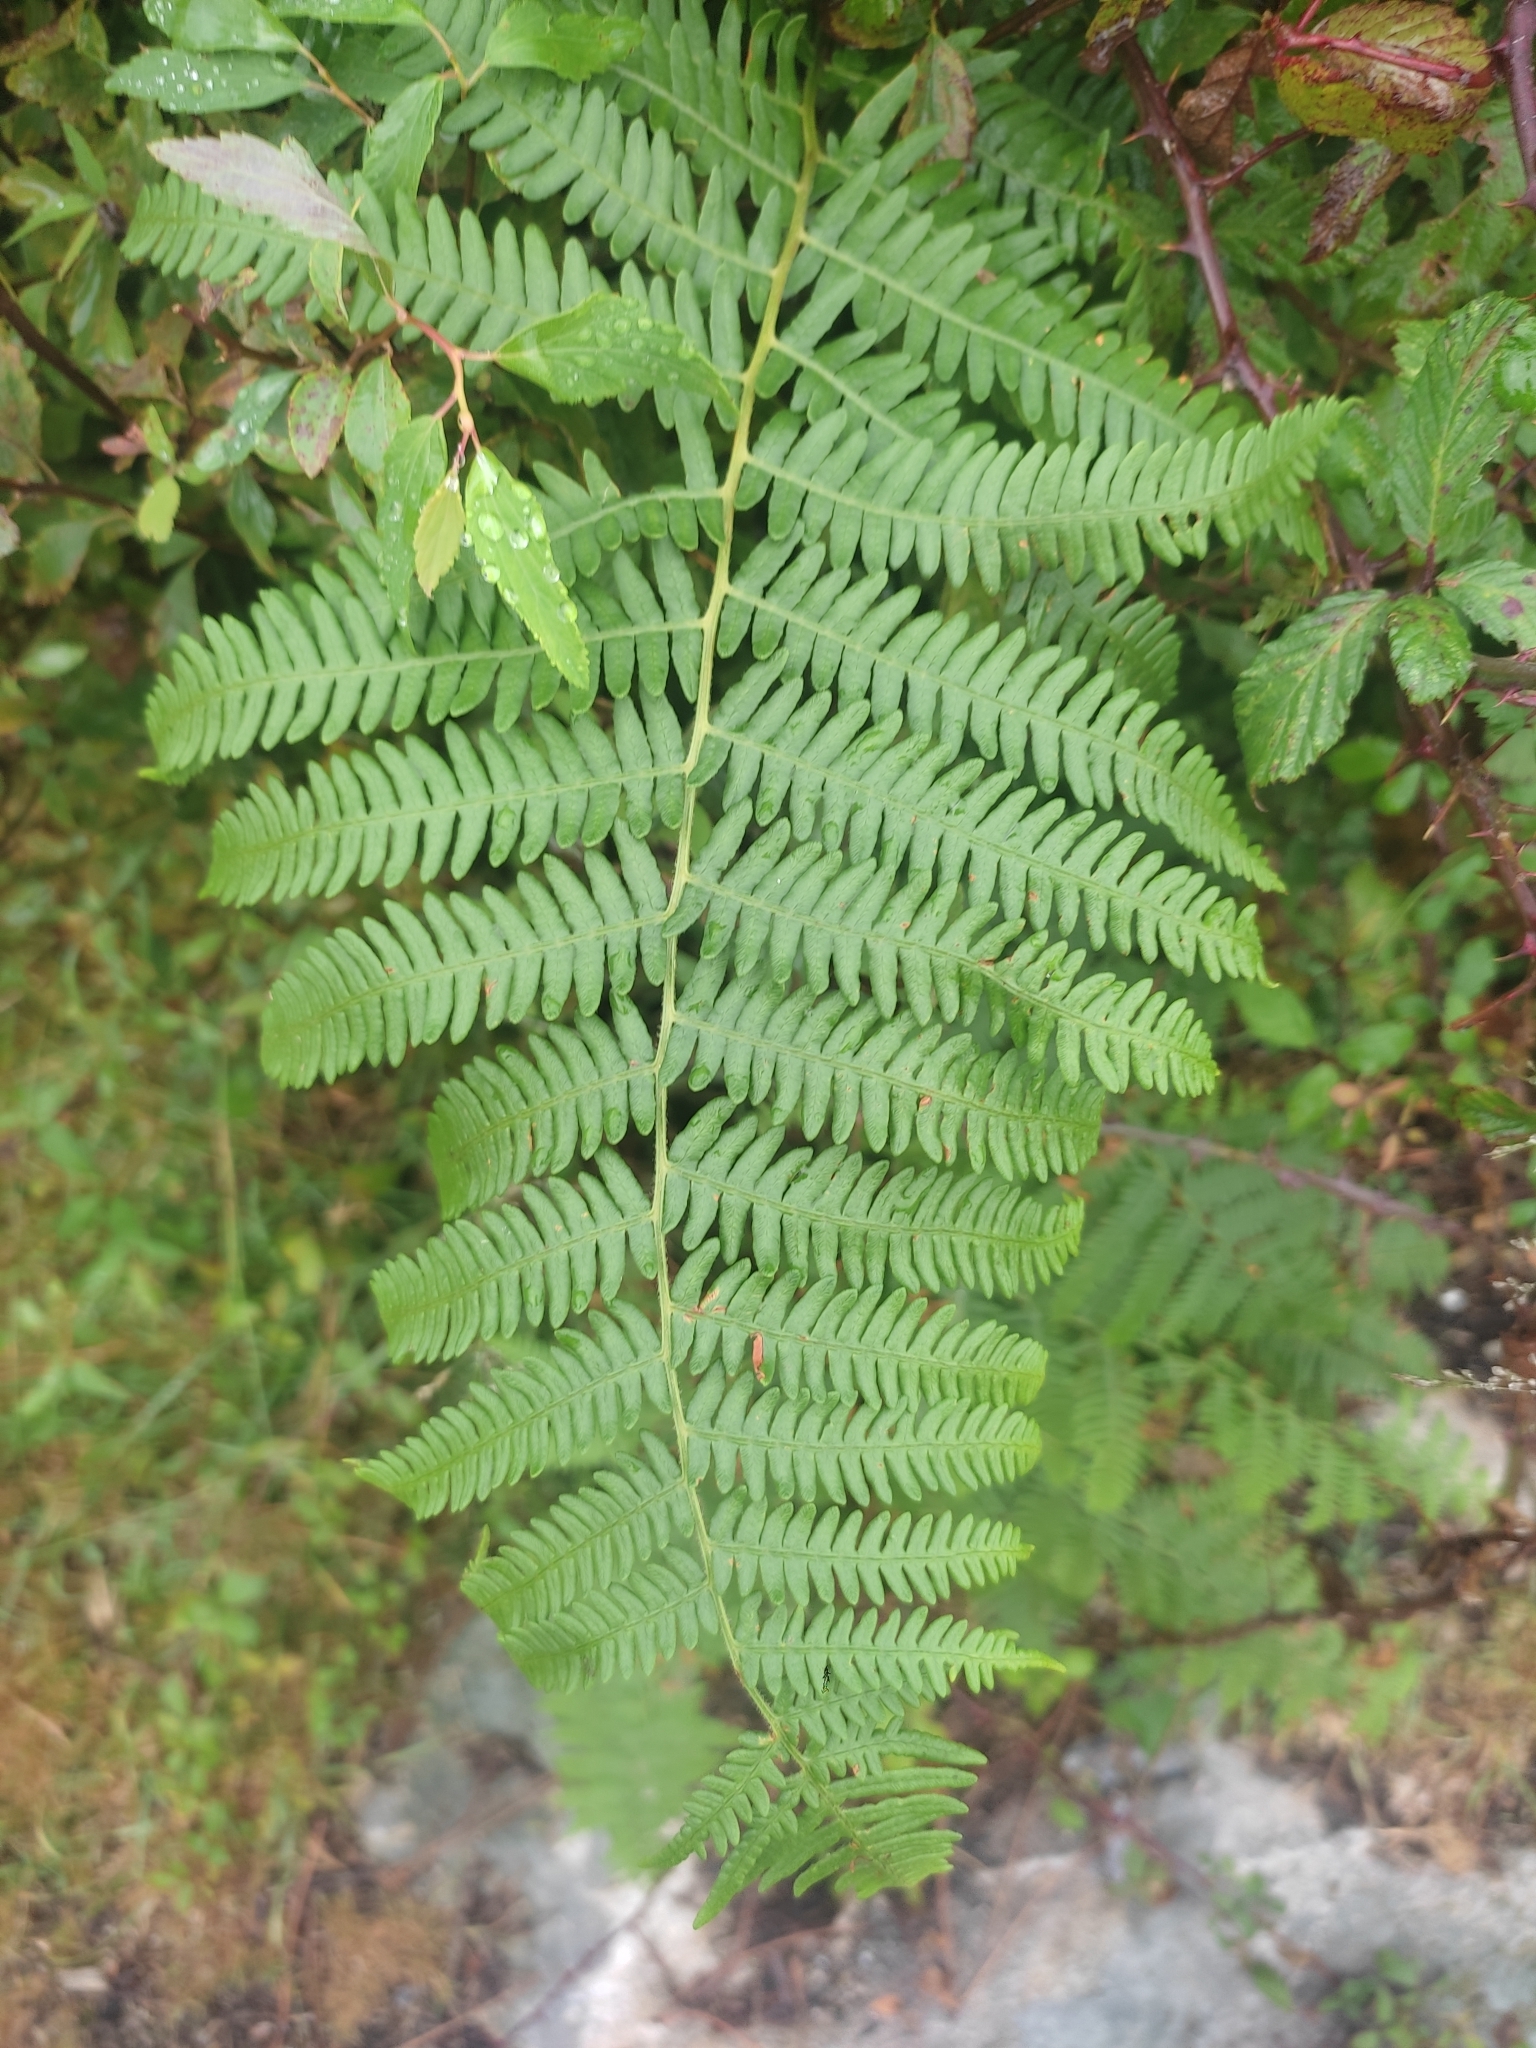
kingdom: Plantae
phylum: Tracheophyta
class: Polypodiopsida
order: Polypodiales
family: Dennstaedtiaceae
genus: Pteridium
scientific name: Pteridium aquilinum
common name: Bracken
